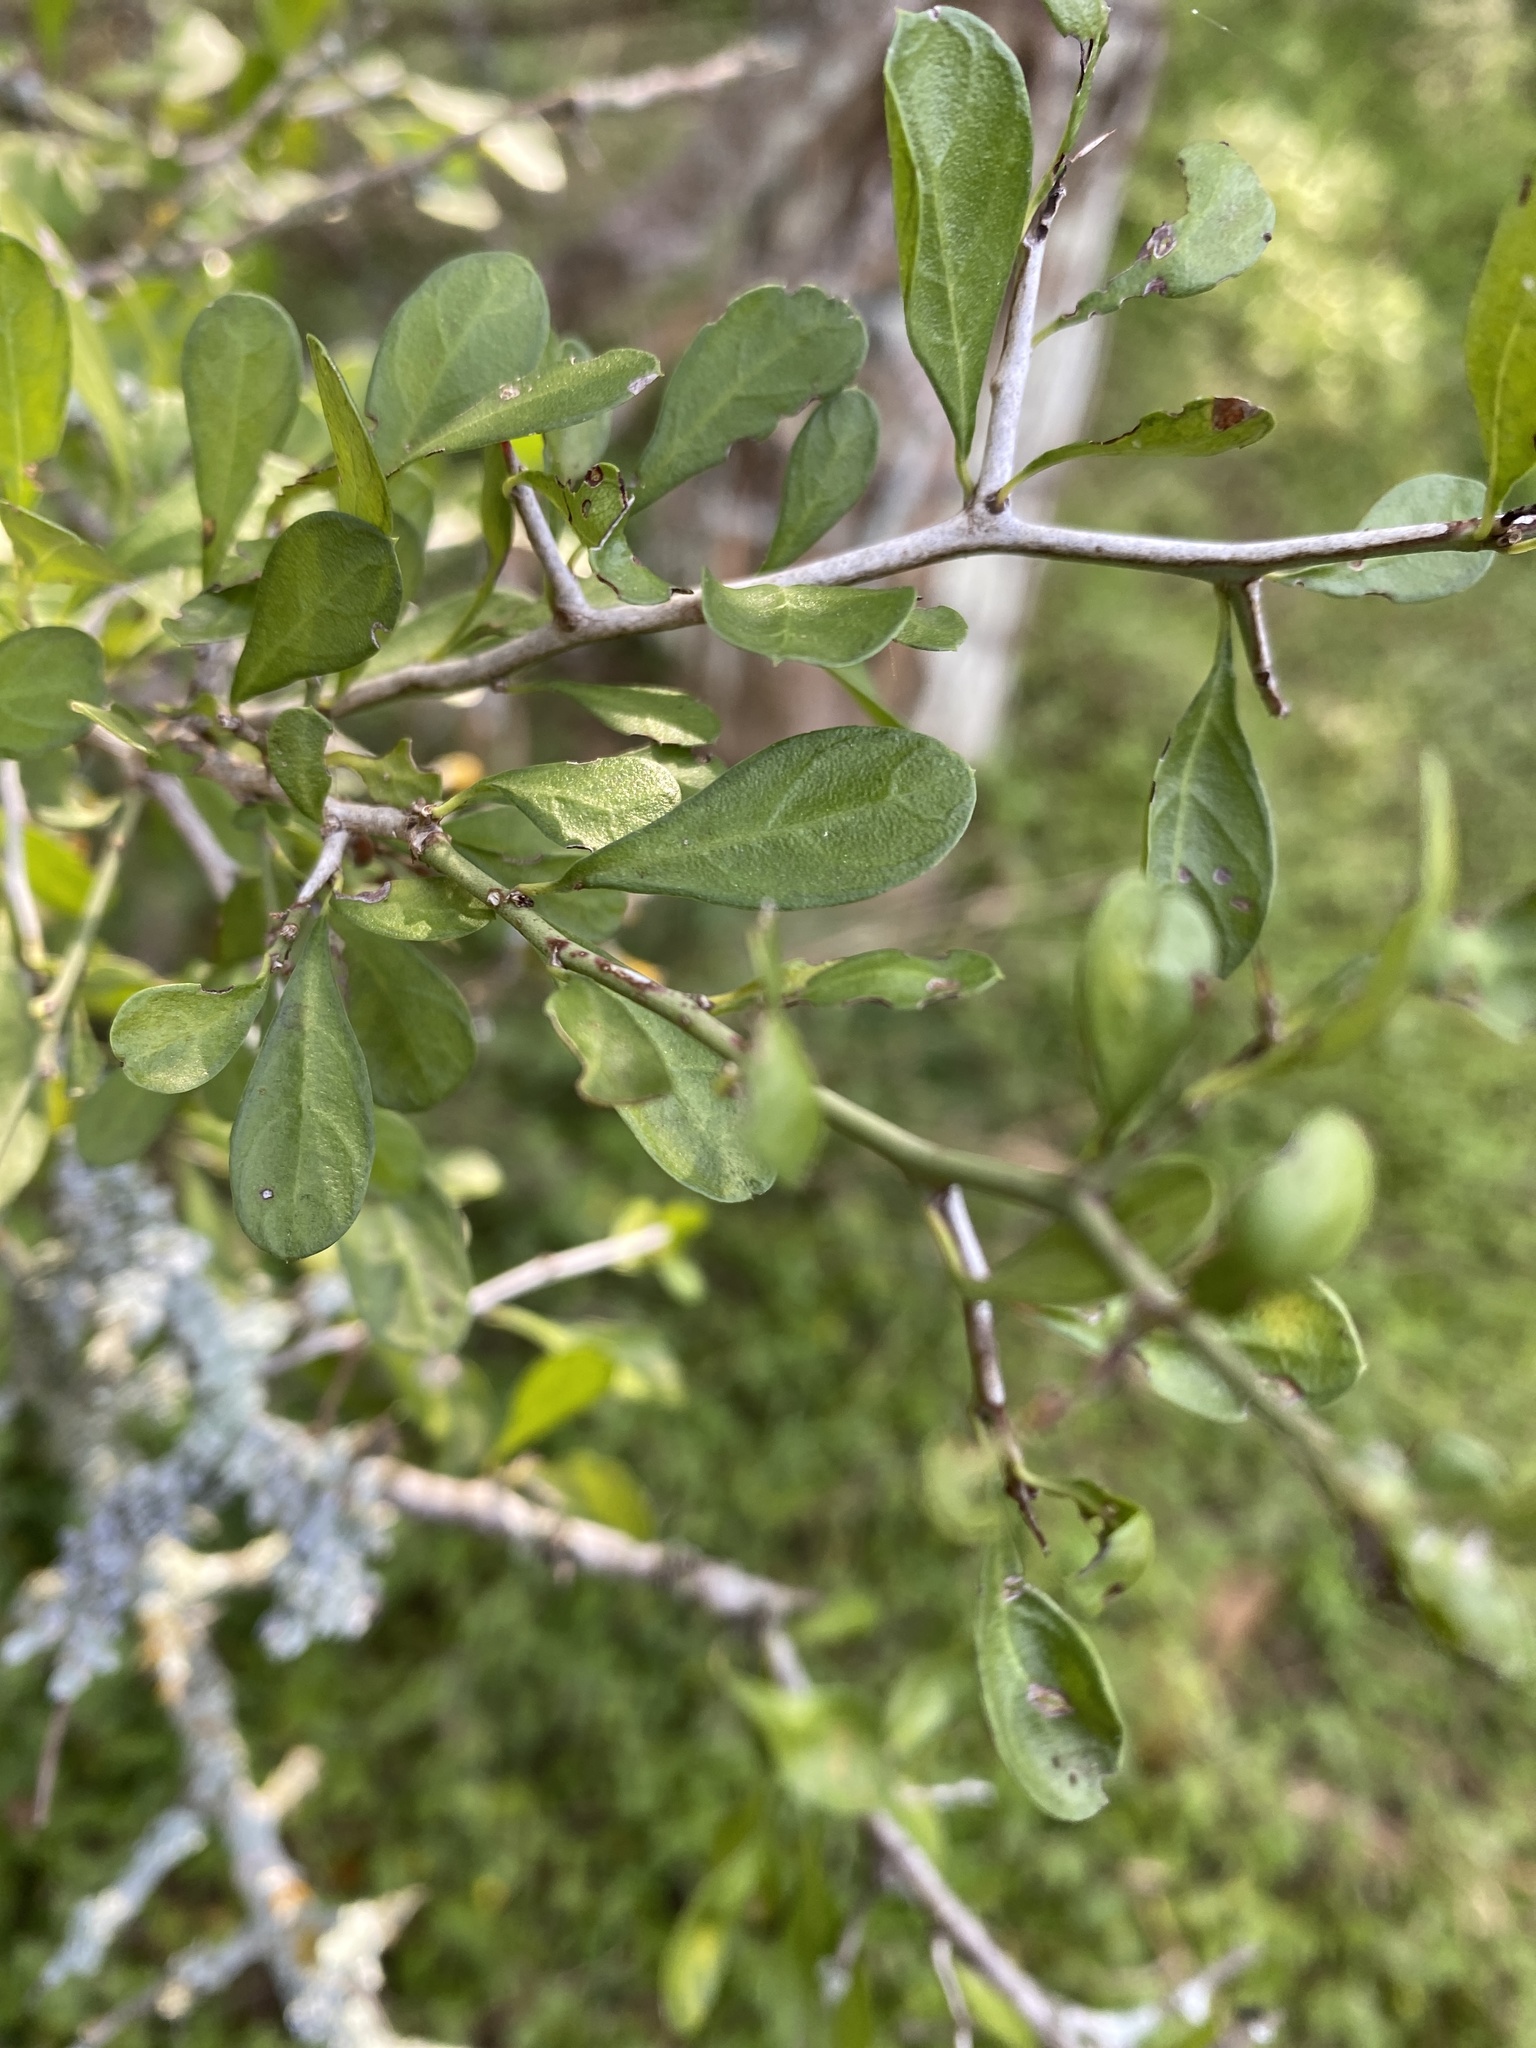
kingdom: Plantae
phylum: Tracheophyta
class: Magnoliopsida
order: Rosales
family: Rhamnaceae
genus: Condalia
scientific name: Condalia hookeri
